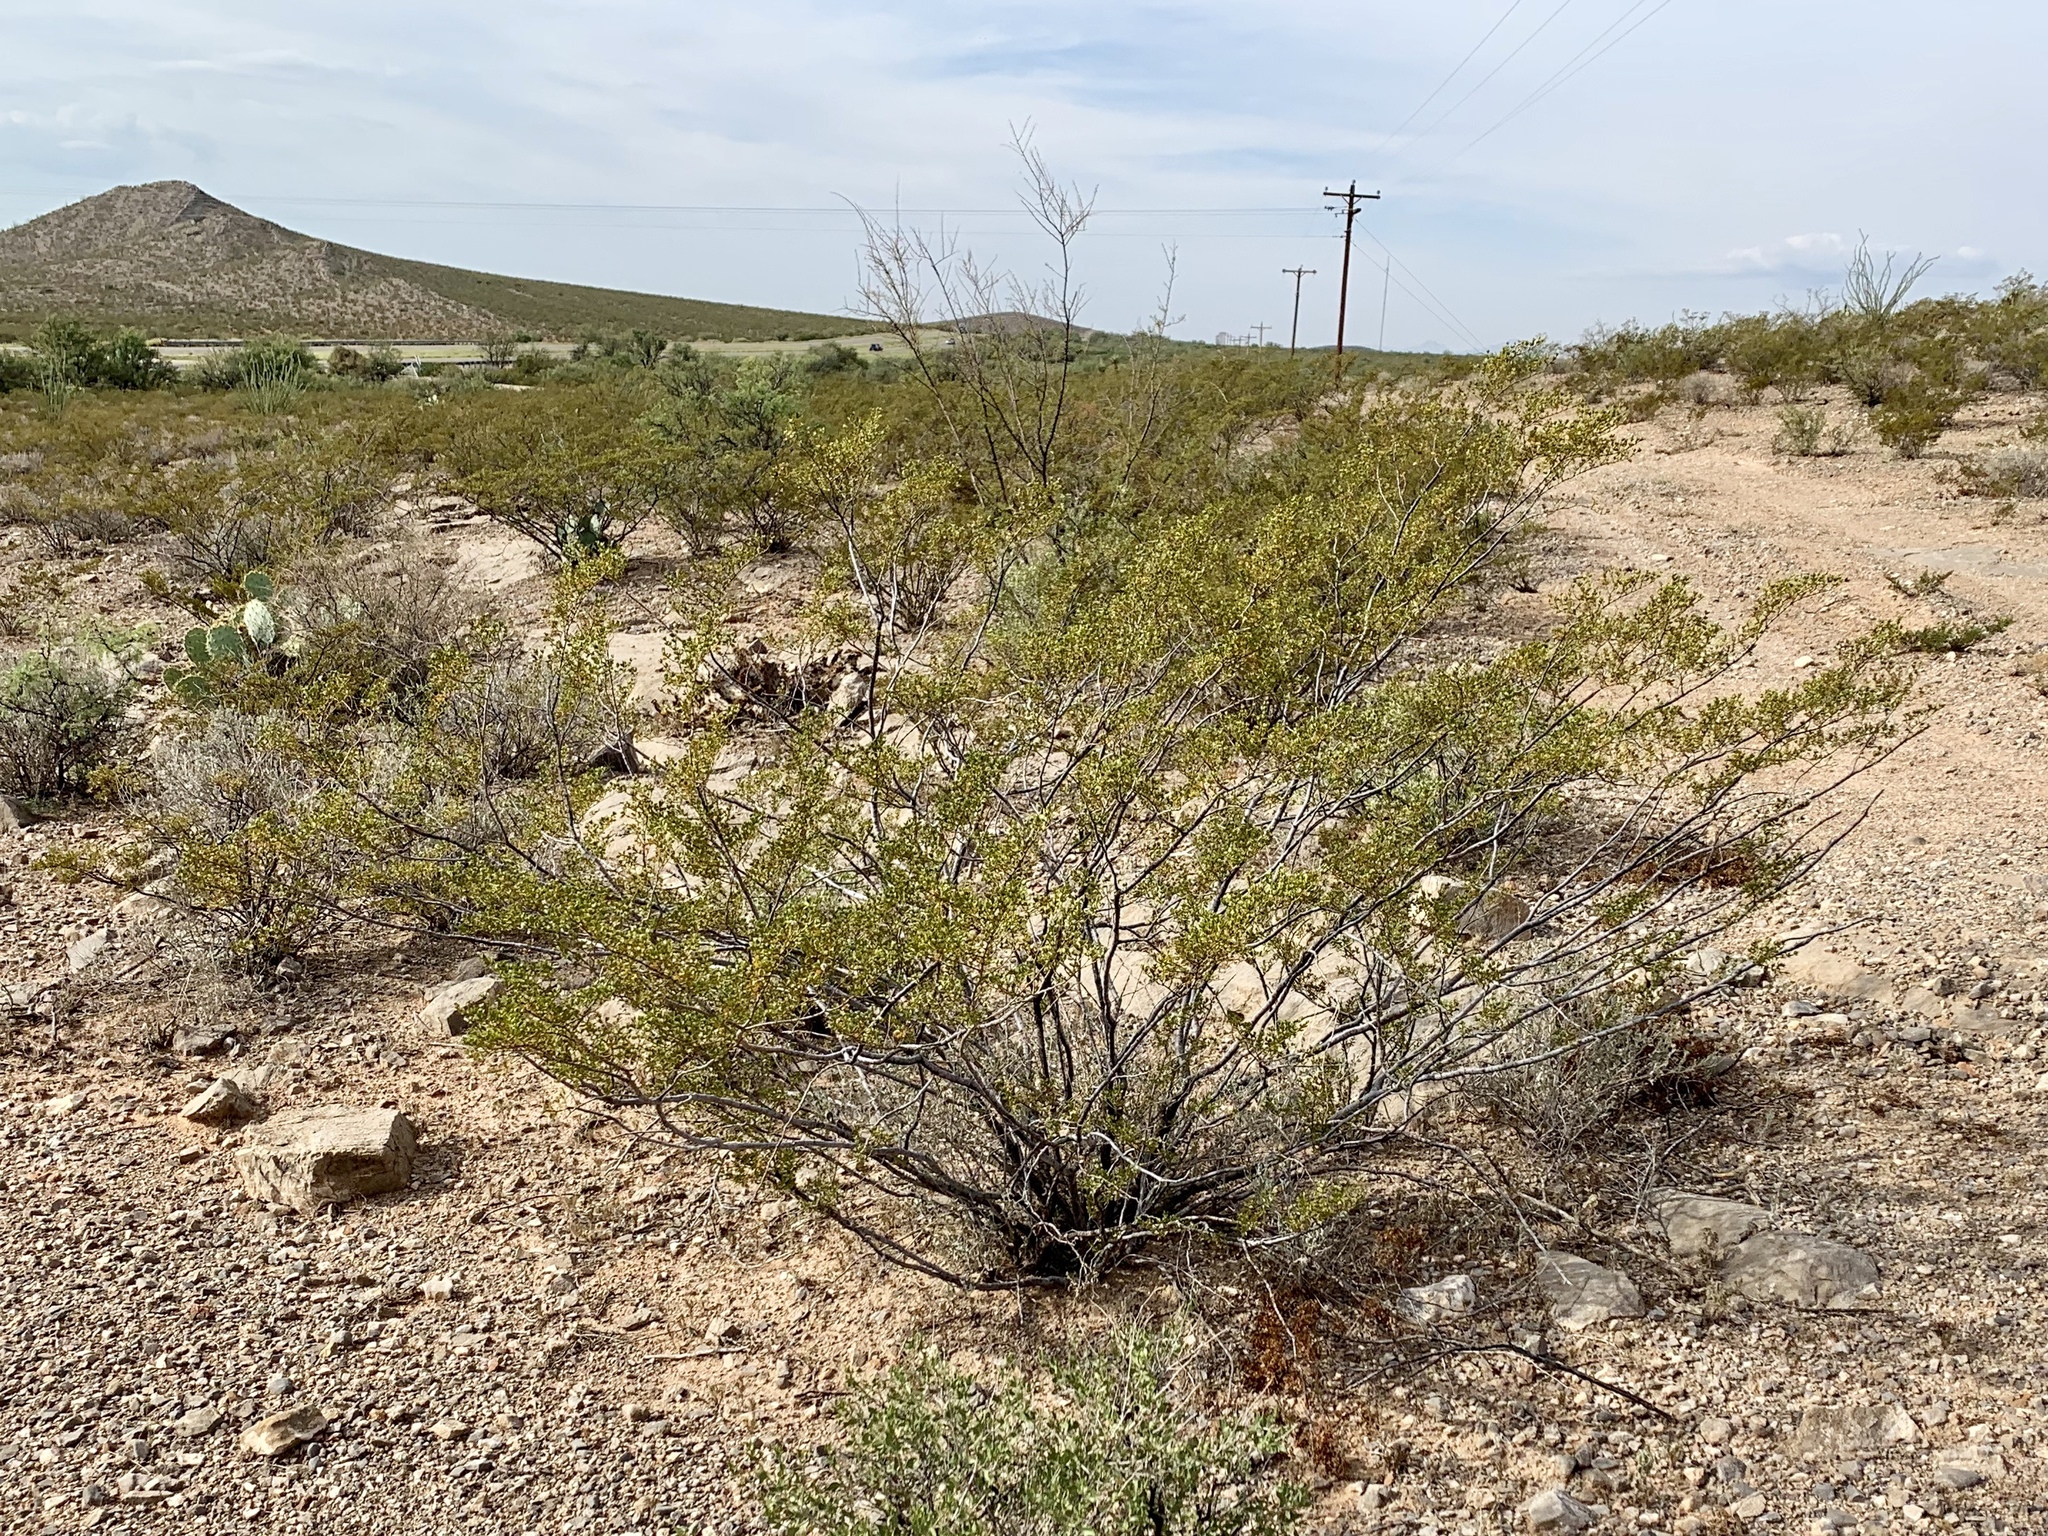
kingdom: Plantae
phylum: Tracheophyta
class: Magnoliopsida
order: Zygophyllales
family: Zygophyllaceae
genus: Larrea
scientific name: Larrea tridentata
